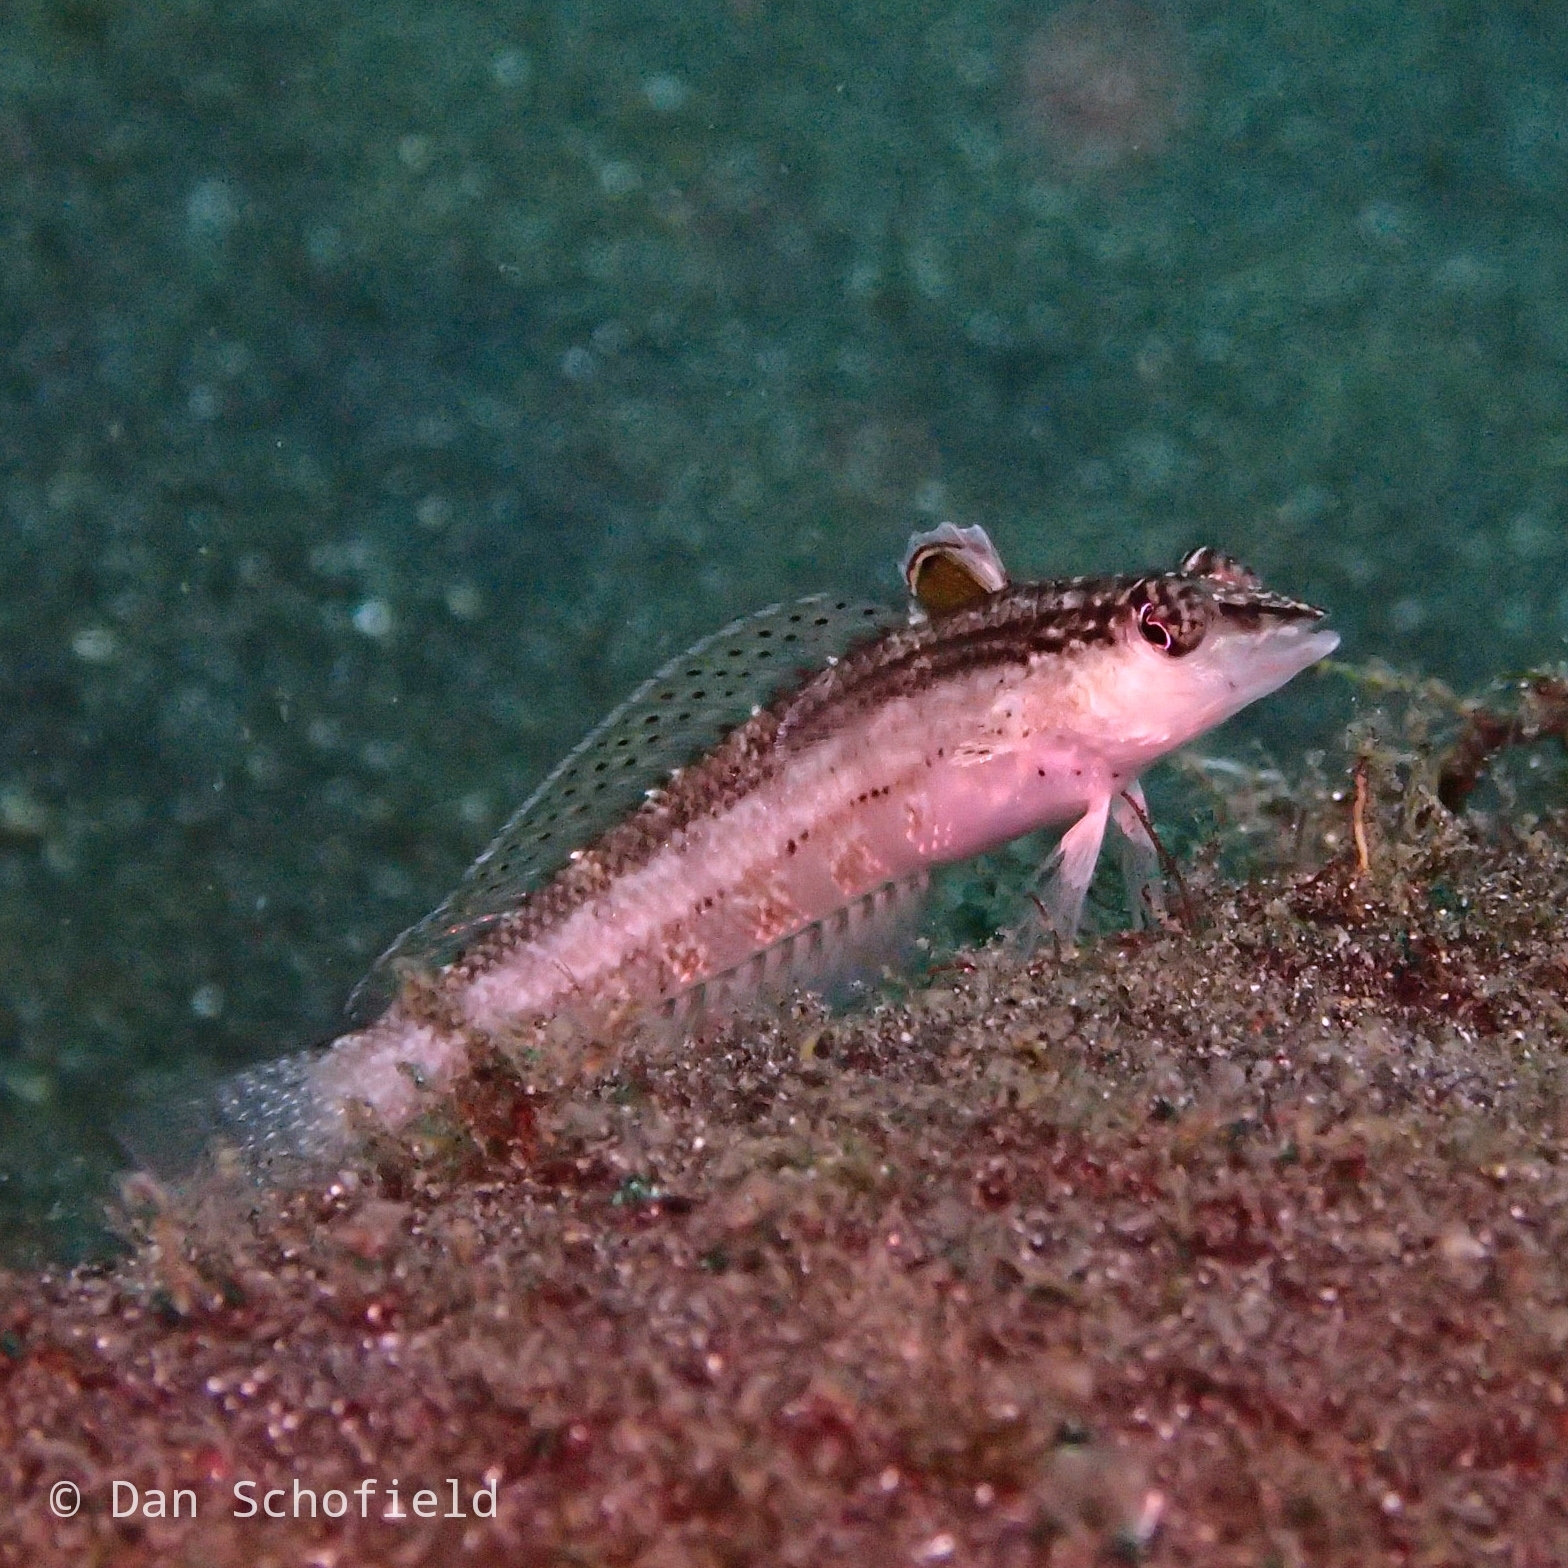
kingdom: Animalia
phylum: Chordata
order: Perciformes
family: Pinguipedidae
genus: Parapercis
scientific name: Parapercis lineopunctata
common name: Nosestripe sandperch
